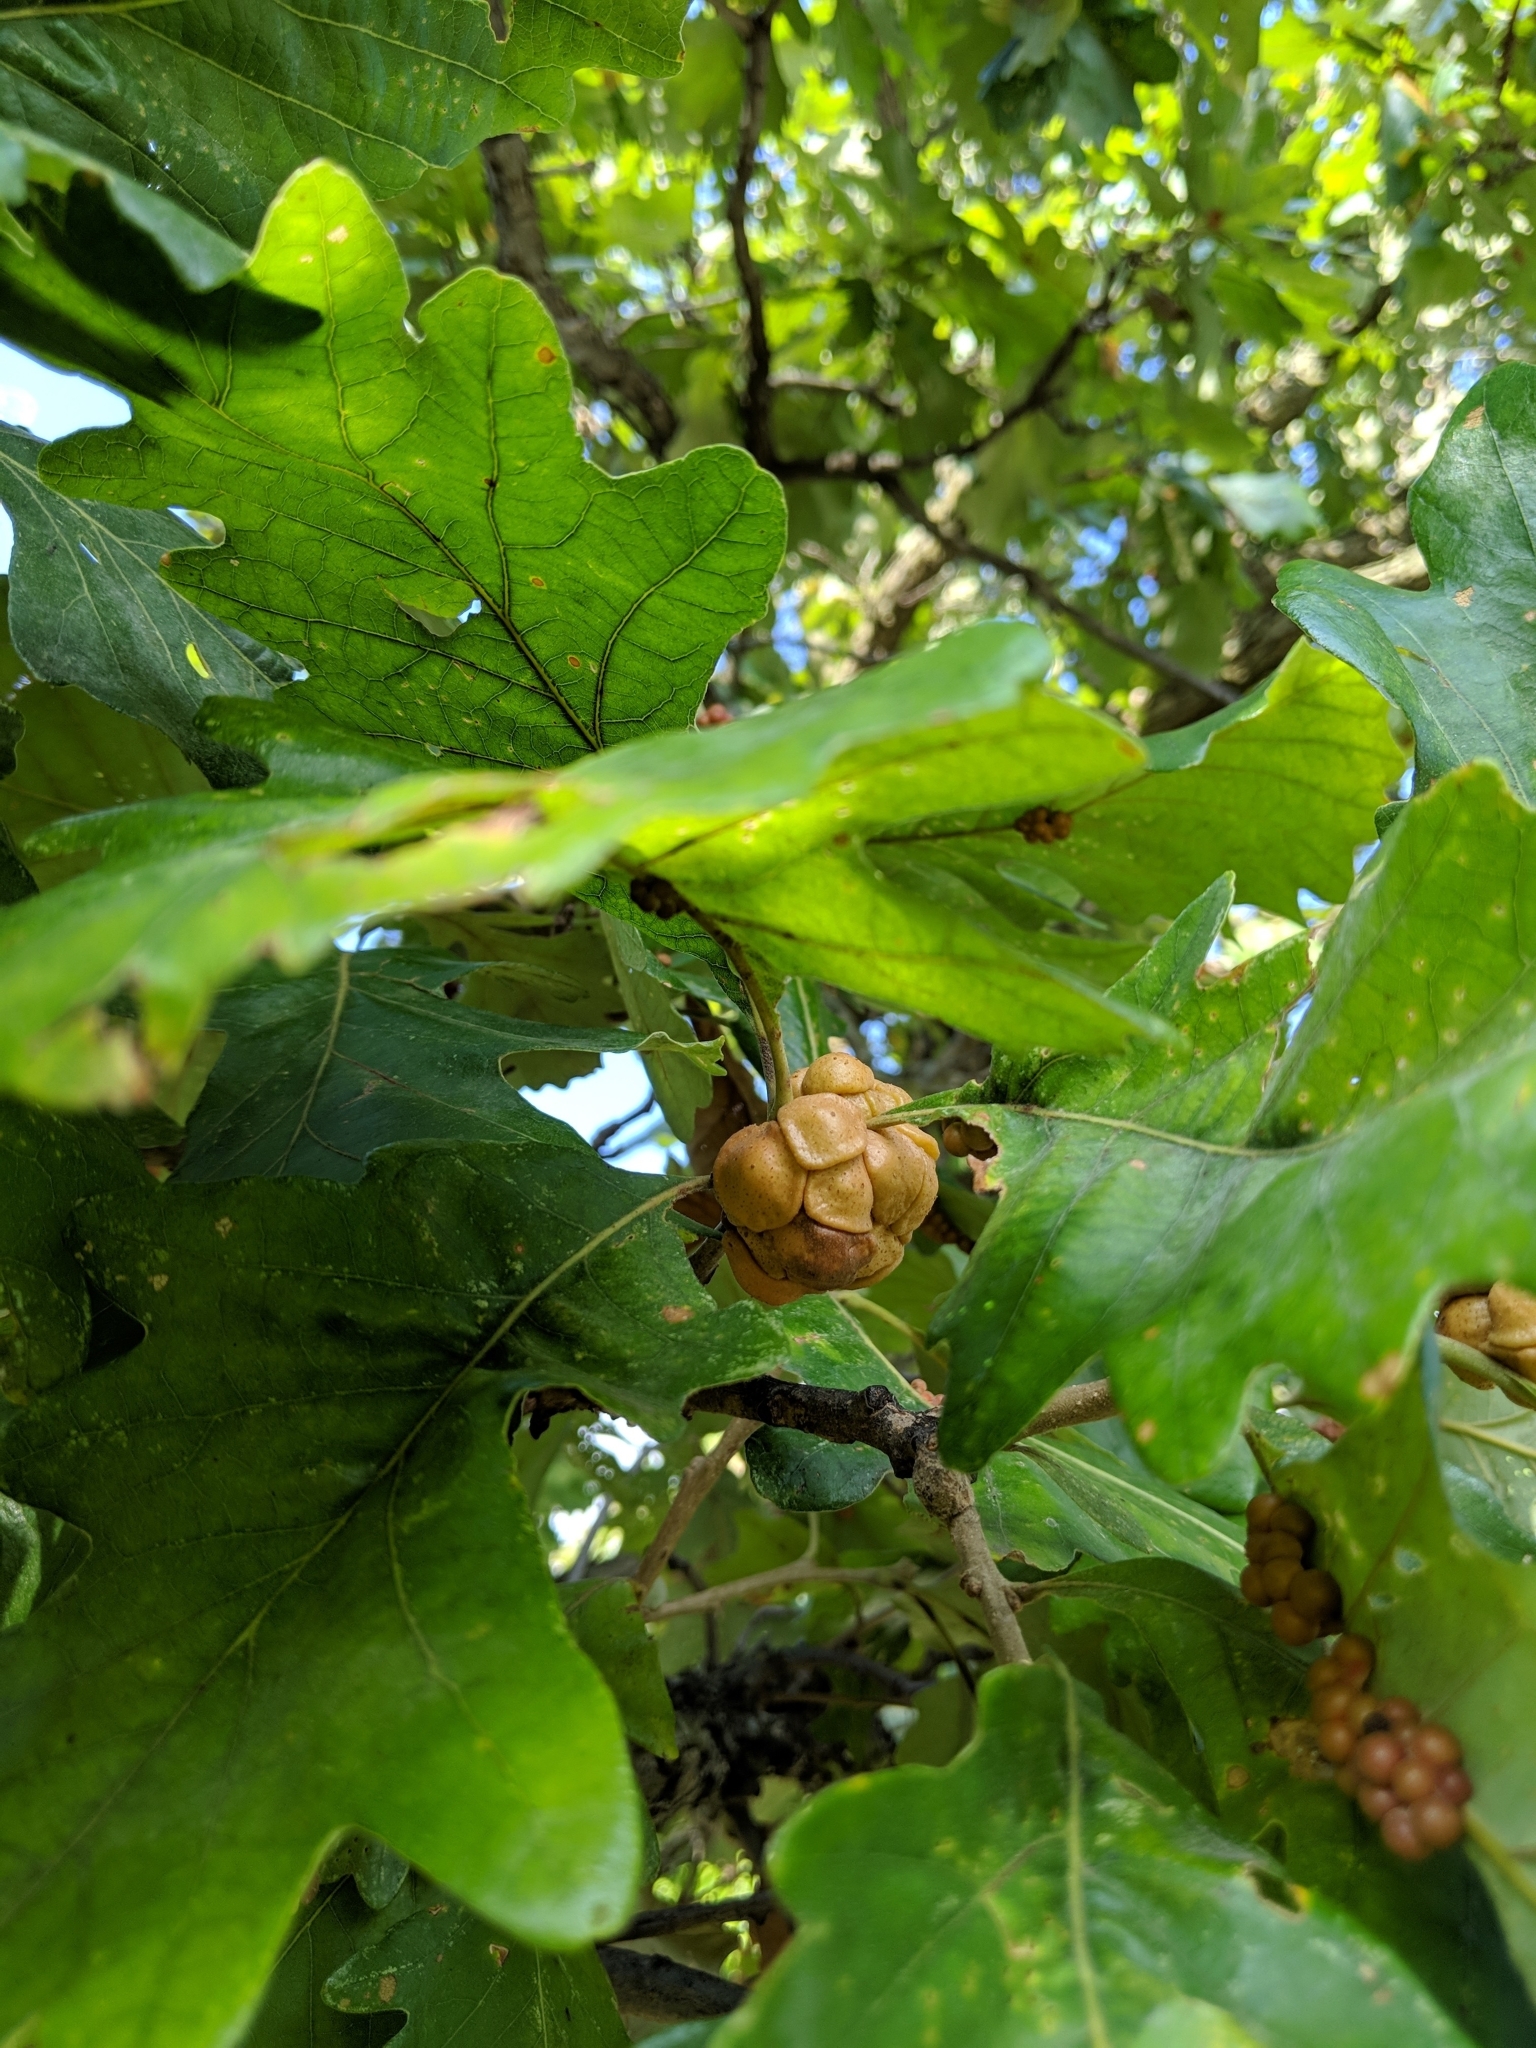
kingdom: Animalia
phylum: Arthropoda
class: Insecta
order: Hymenoptera
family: Cynipidae
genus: Andricus
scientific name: Andricus
